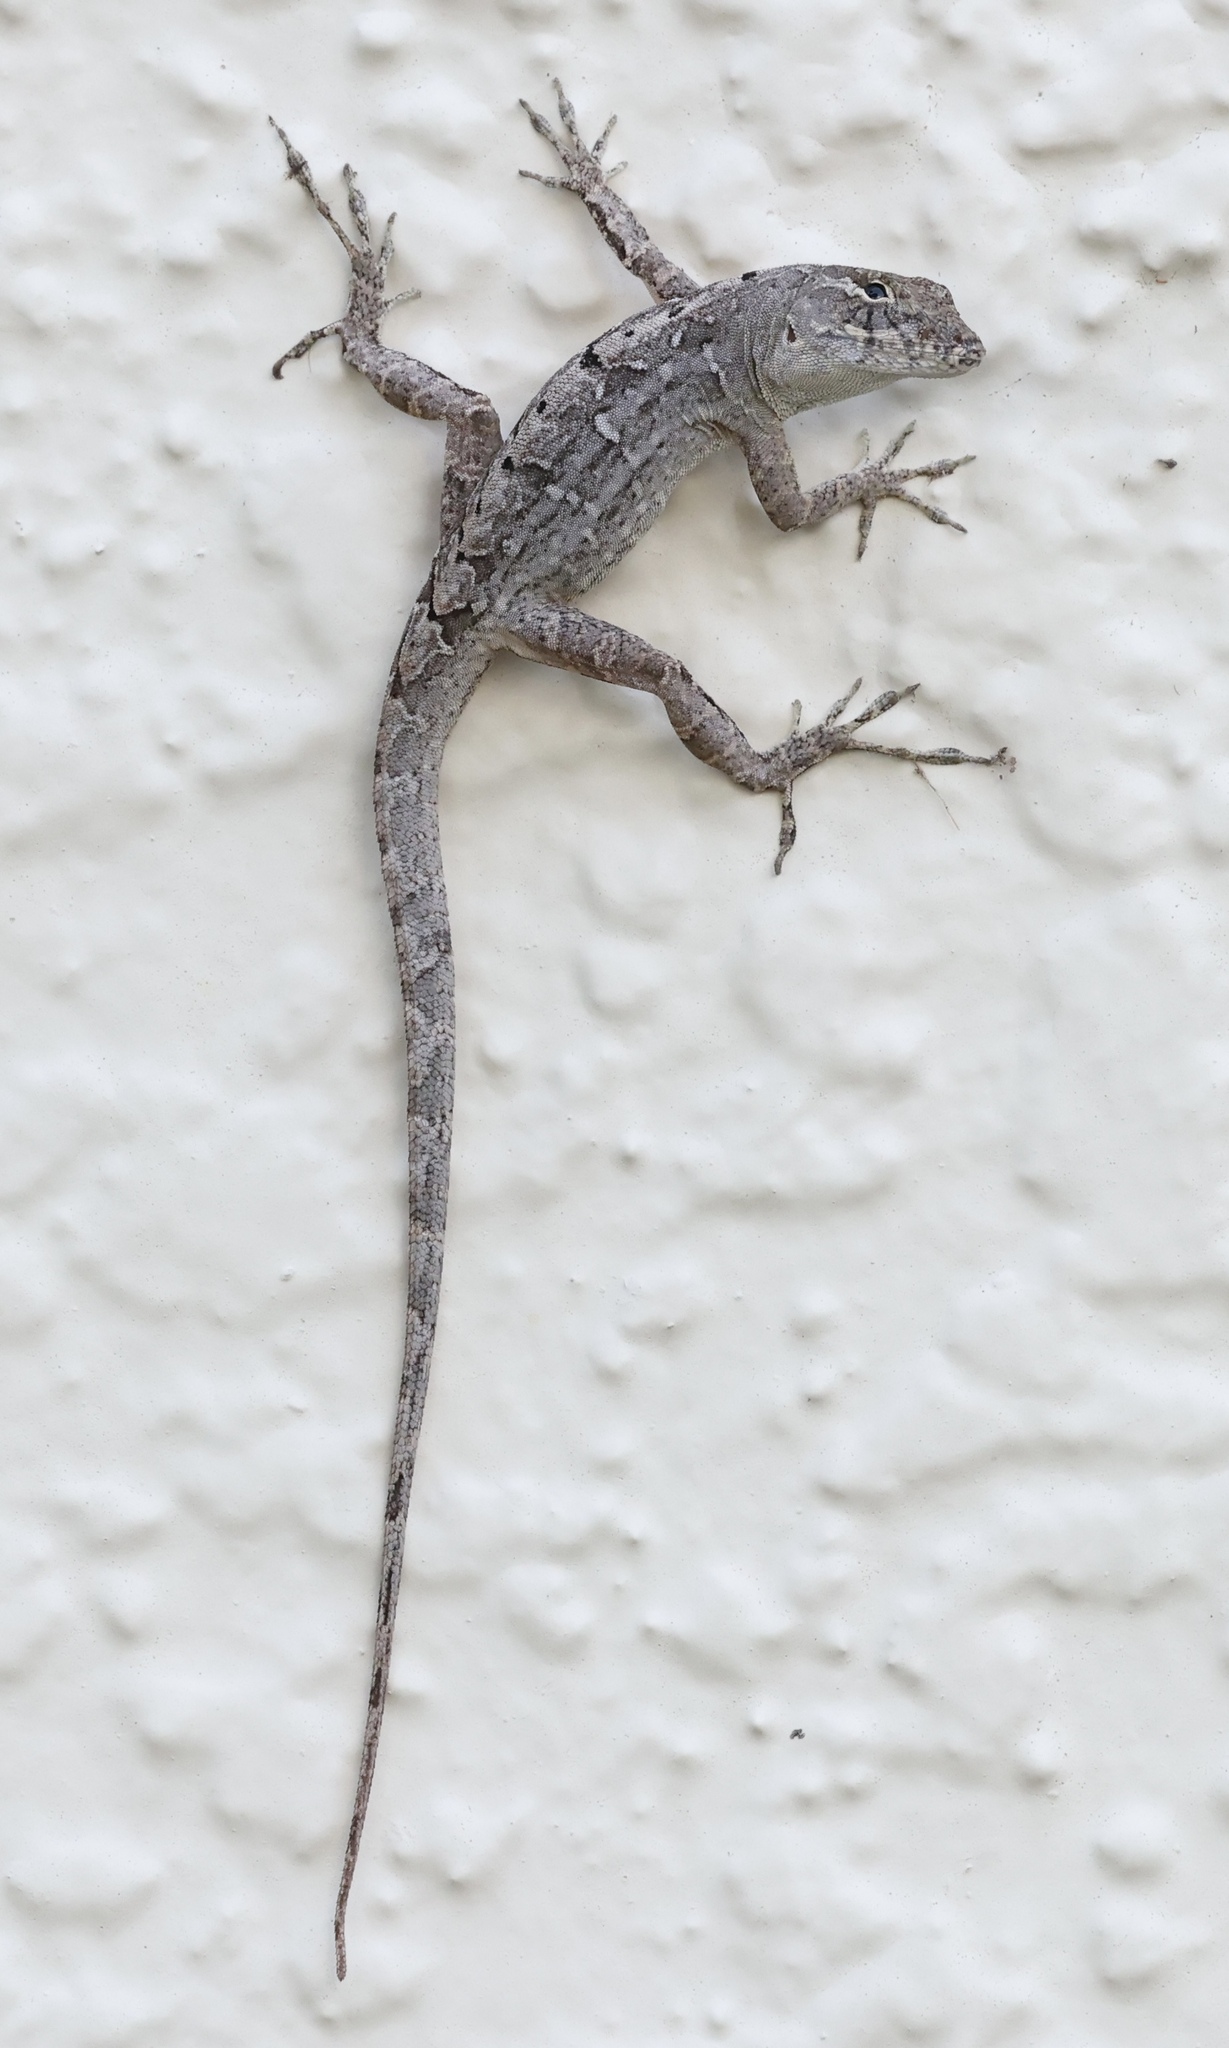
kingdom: Animalia
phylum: Chordata
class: Squamata
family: Dactyloidae
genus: Anolis
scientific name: Anolis sagrei
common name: Brown anole
